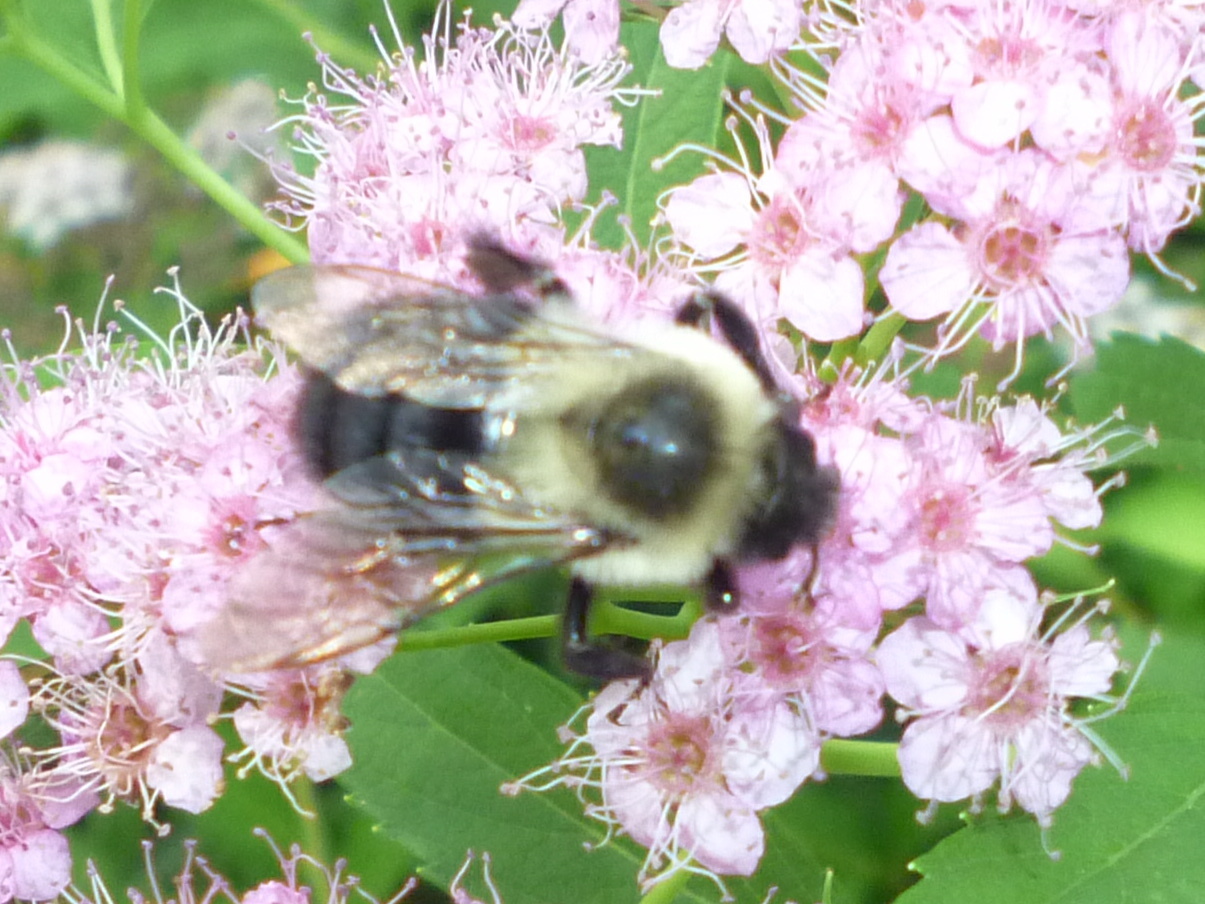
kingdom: Animalia
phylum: Arthropoda
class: Insecta
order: Hymenoptera
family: Apidae
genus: Bombus
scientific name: Bombus impatiens
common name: Common eastern bumble bee
